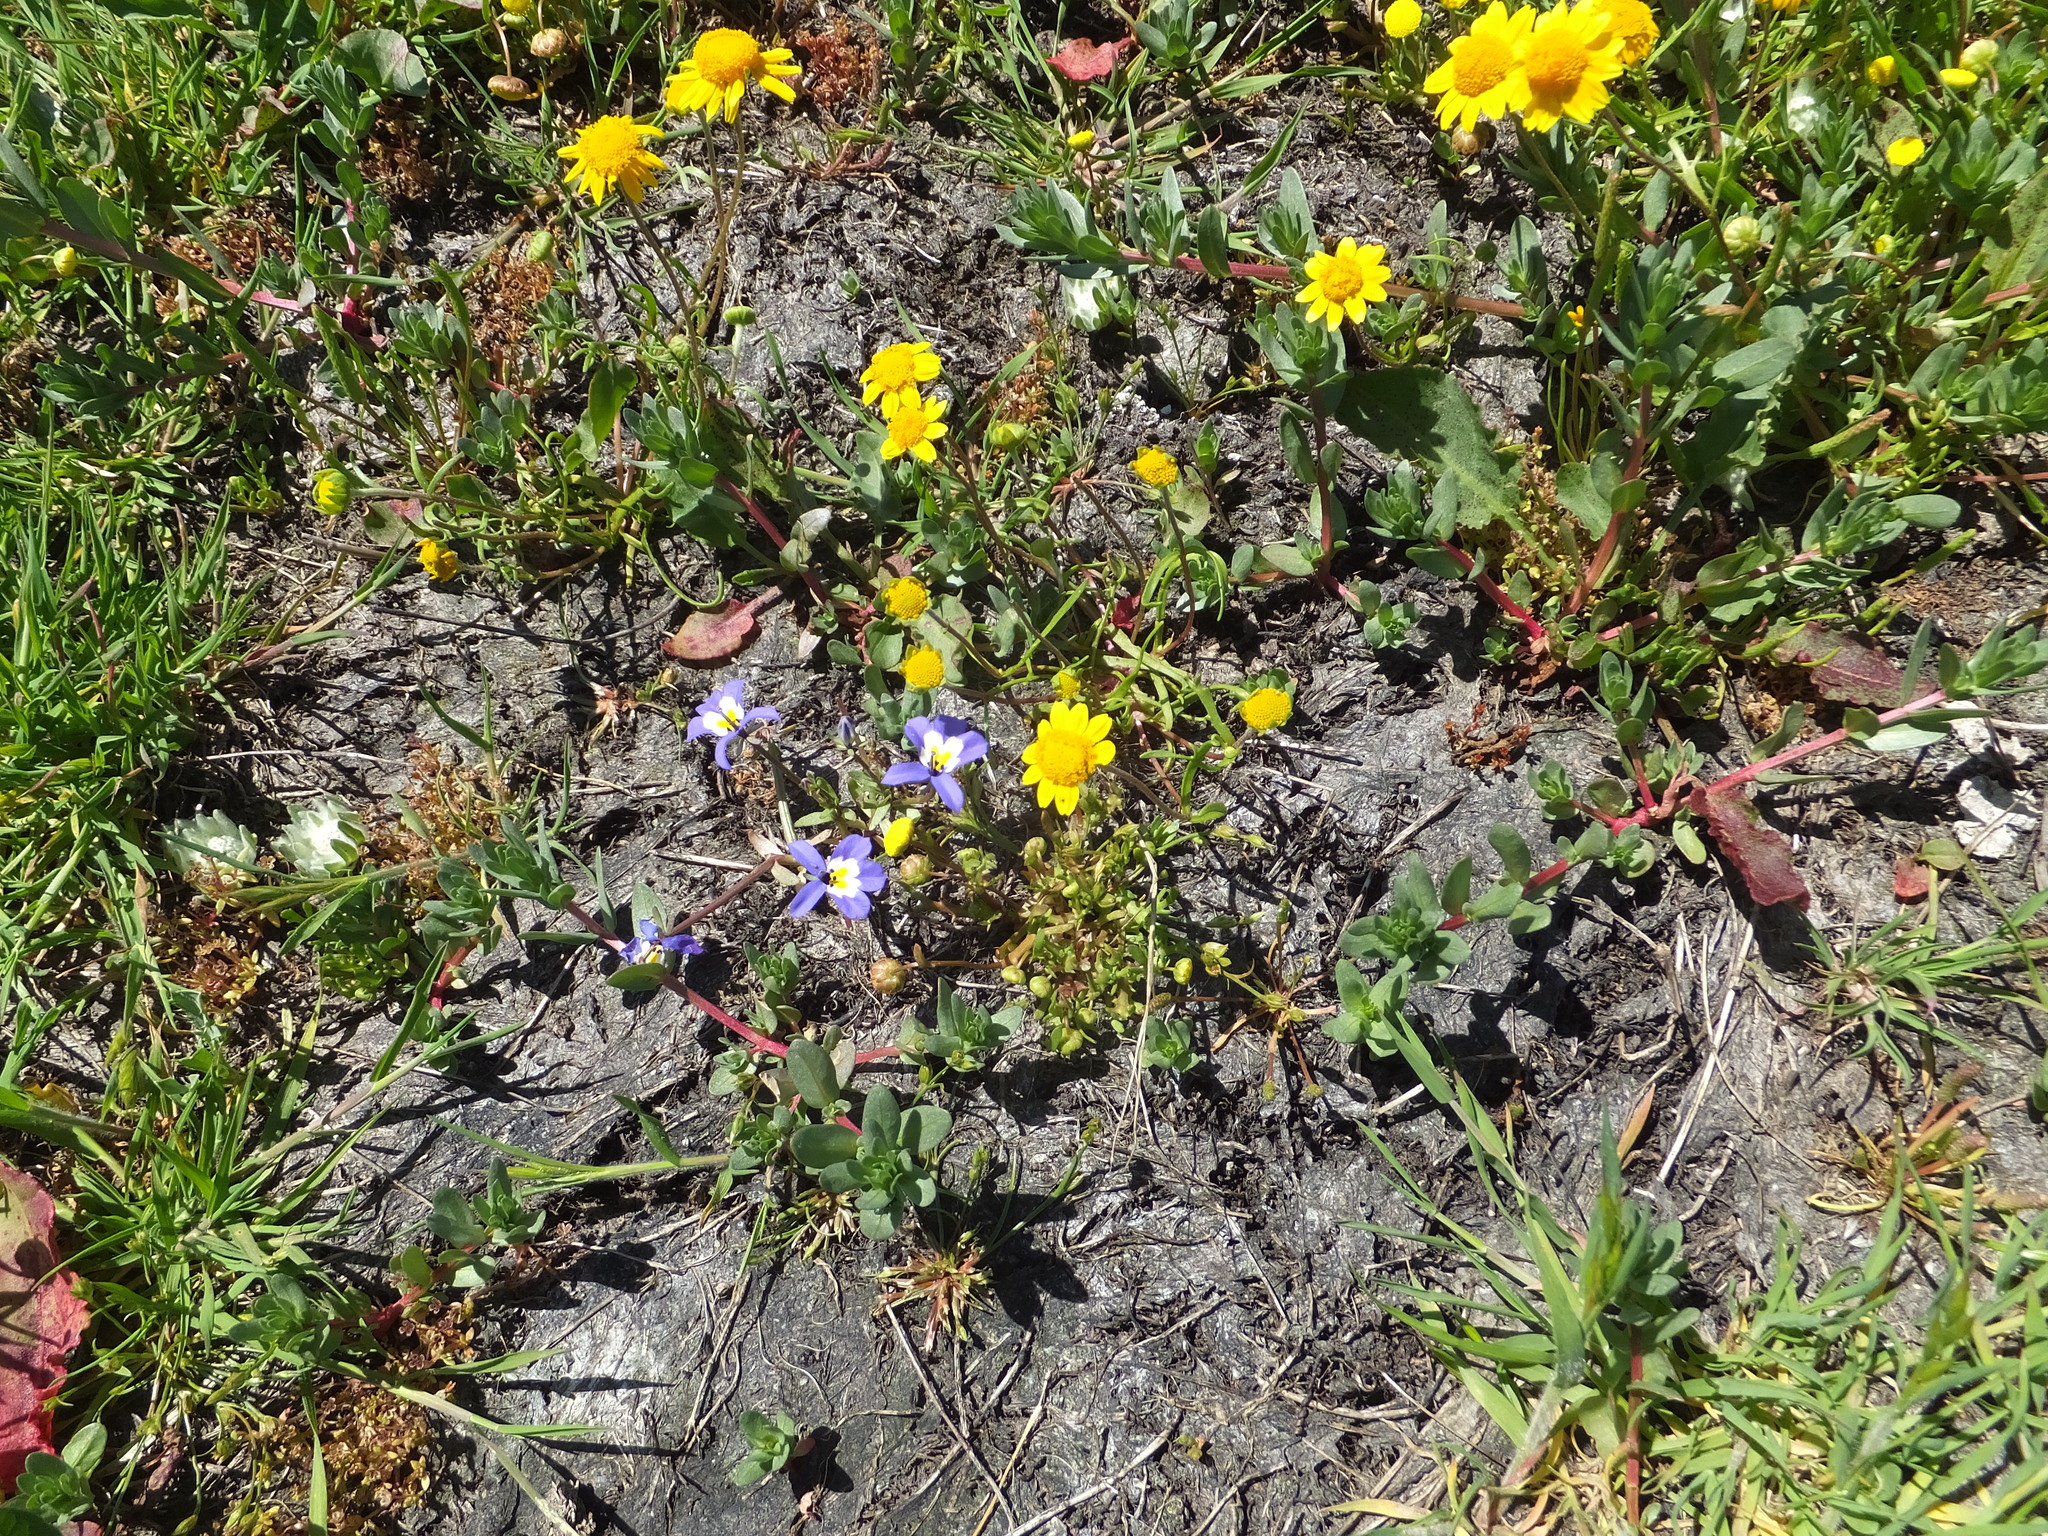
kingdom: Plantae
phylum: Tracheophyta
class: Magnoliopsida
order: Asterales
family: Asteraceae
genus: Lasthenia
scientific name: Lasthenia conjugens
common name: Contra costa goldfields
